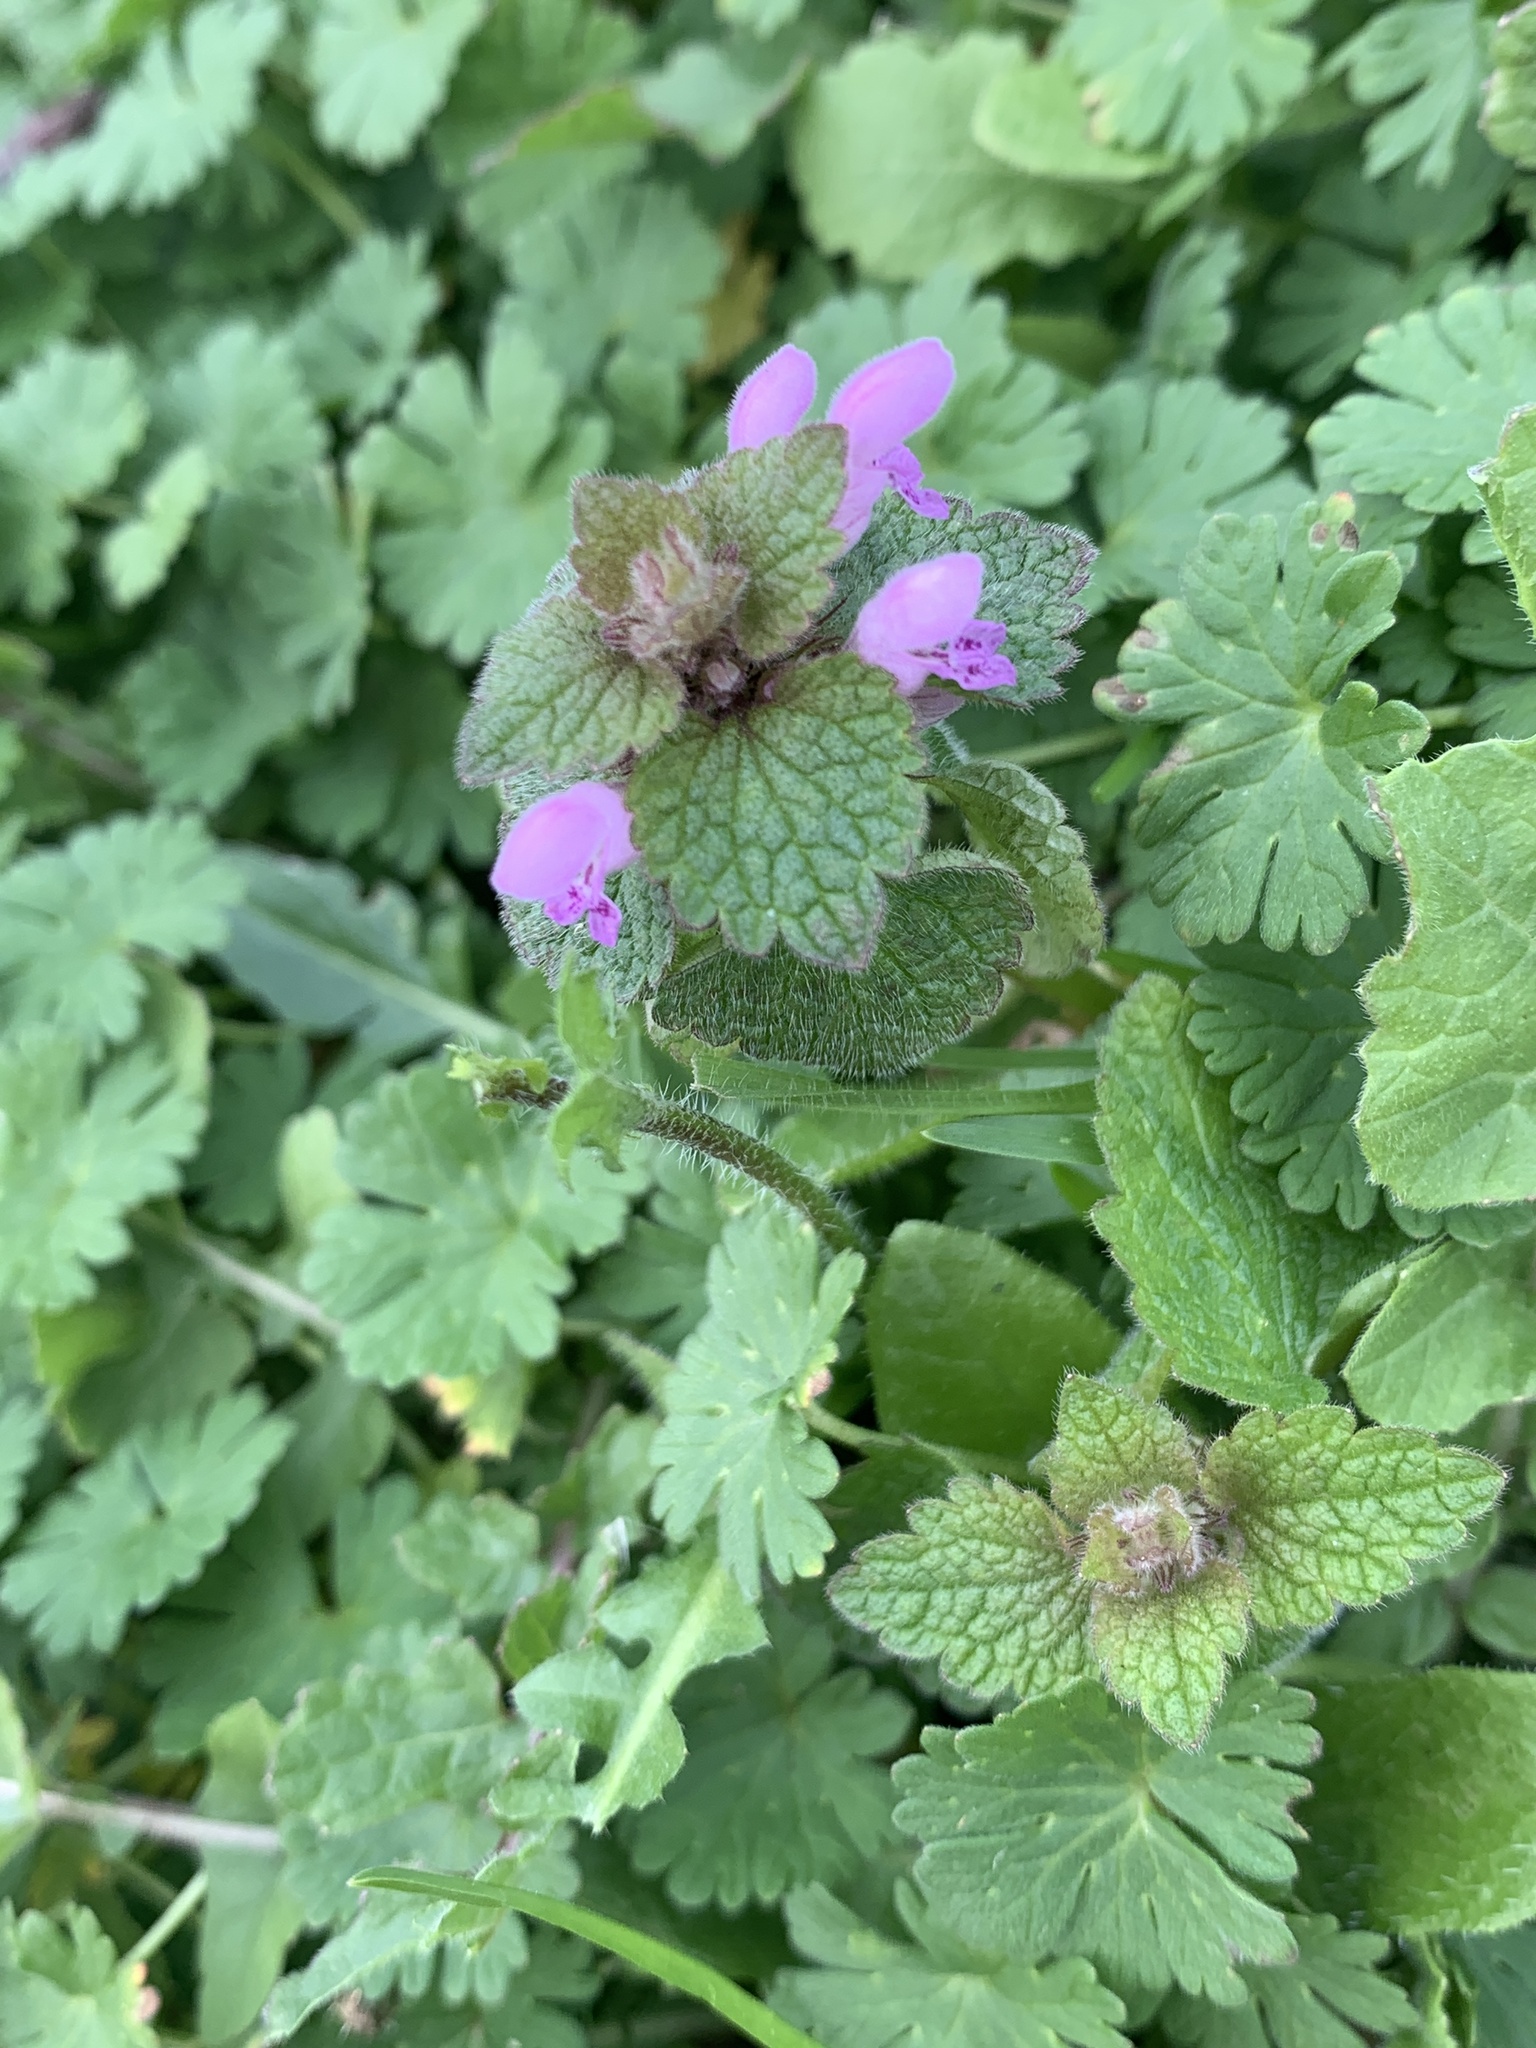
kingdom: Plantae
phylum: Tracheophyta
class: Magnoliopsida
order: Lamiales
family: Lamiaceae
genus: Lamium
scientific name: Lamium purpureum
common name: Red dead-nettle
